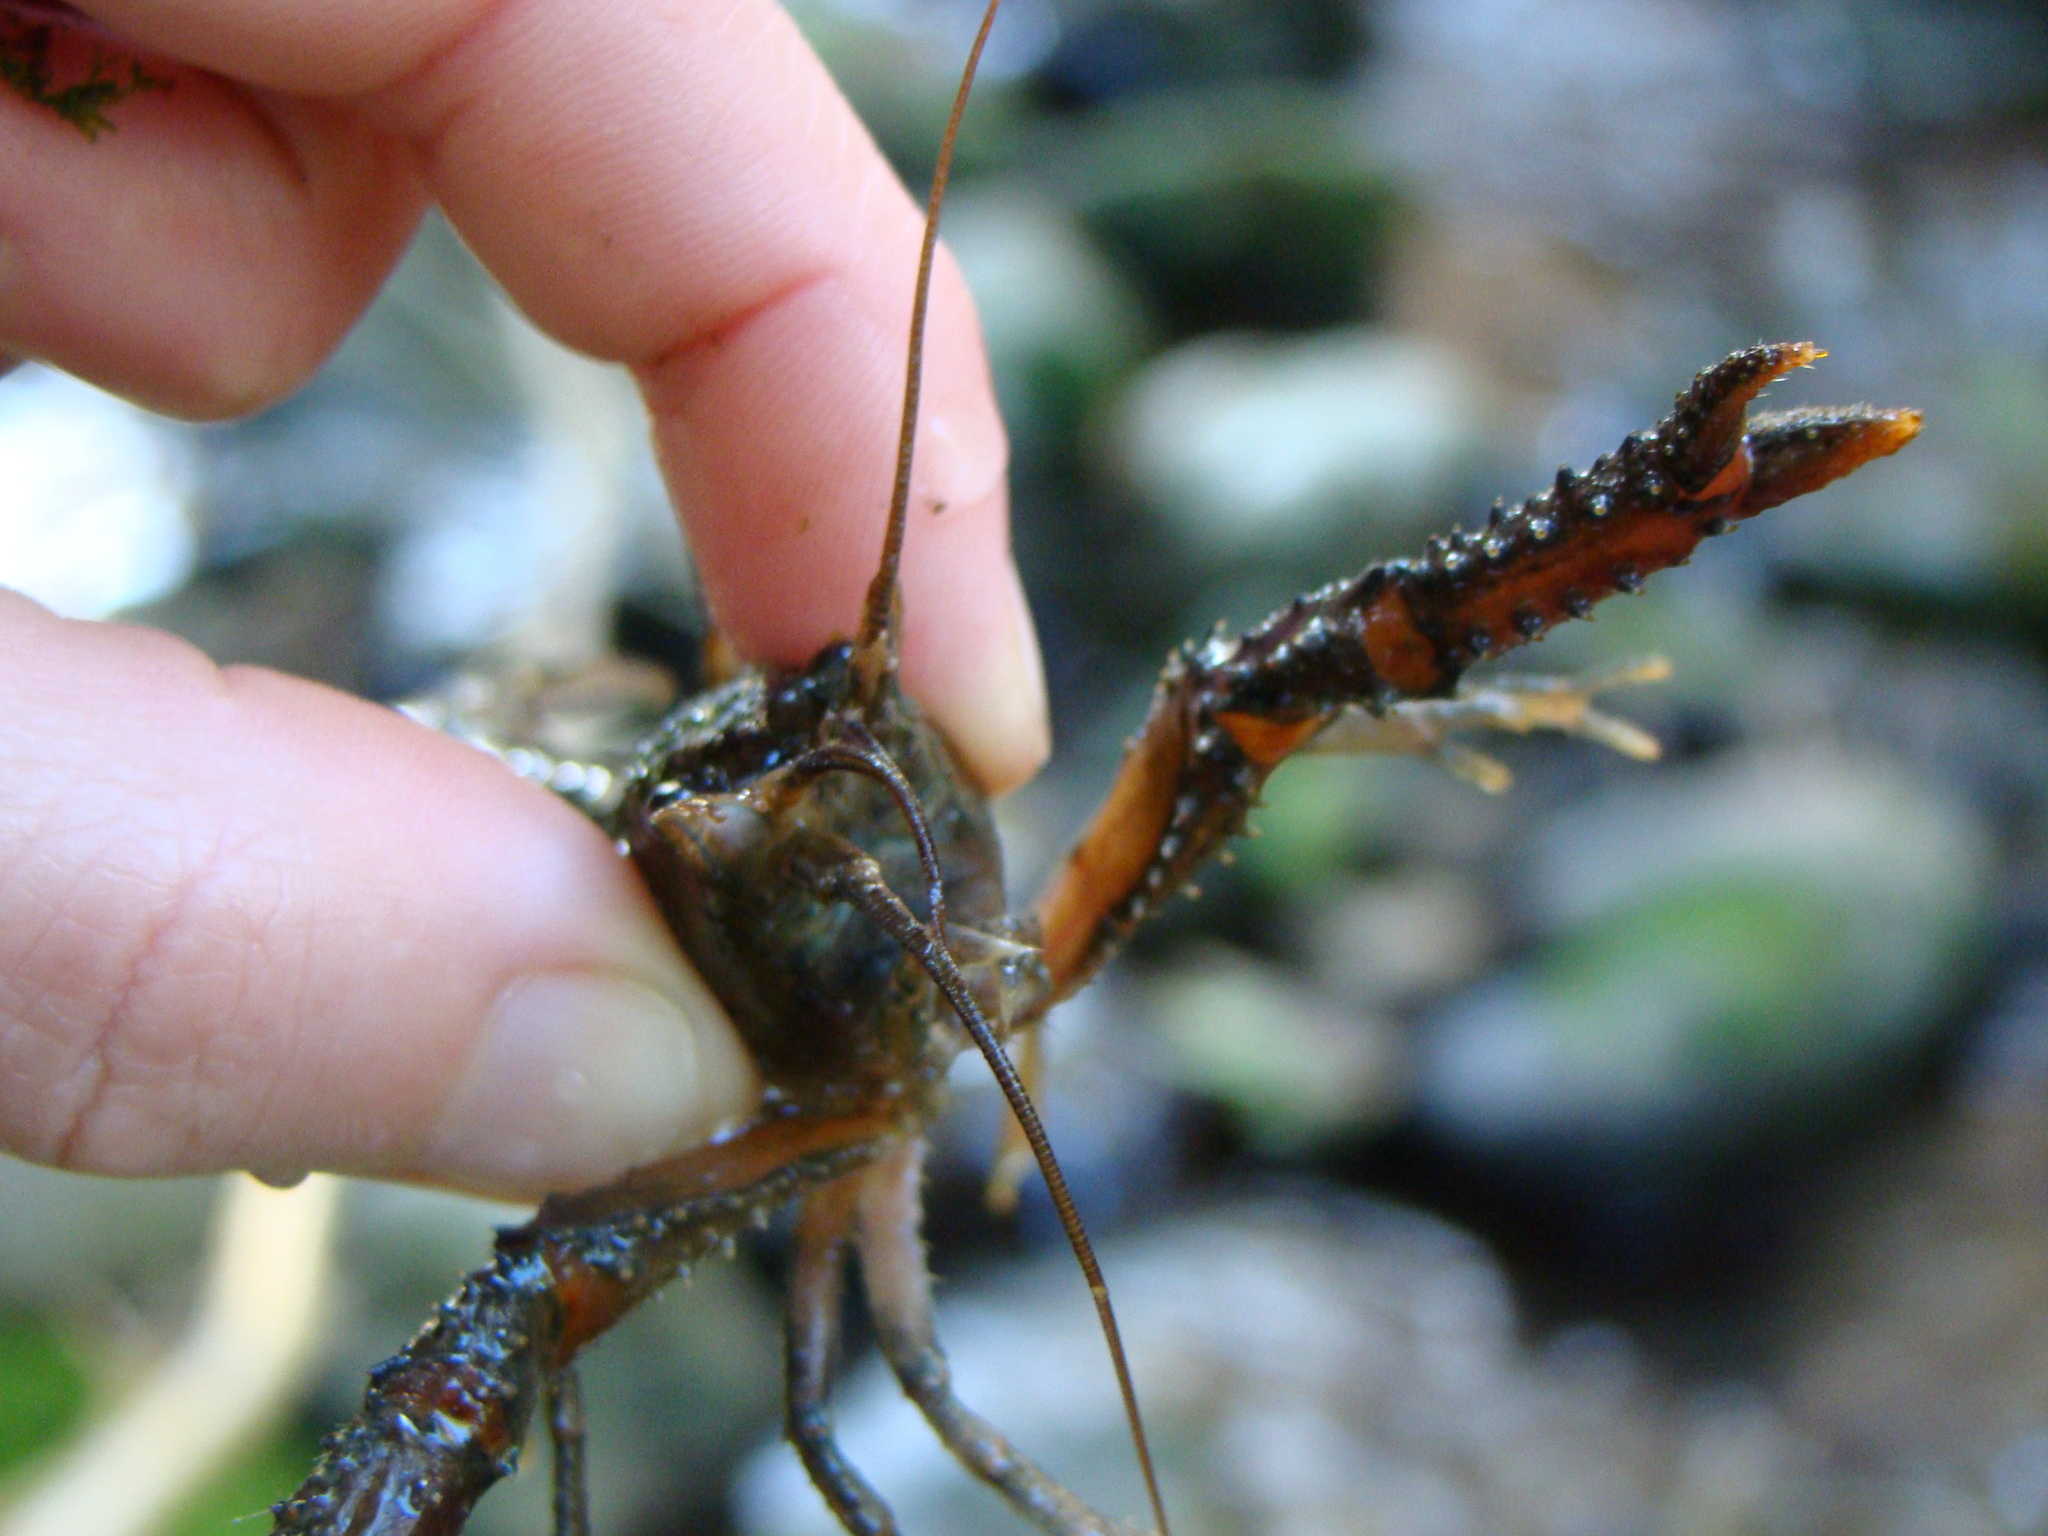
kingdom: Animalia
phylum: Arthropoda
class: Malacostraca
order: Decapoda
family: Parastacidae
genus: Paranephrops
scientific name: Paranephrops planifrons
